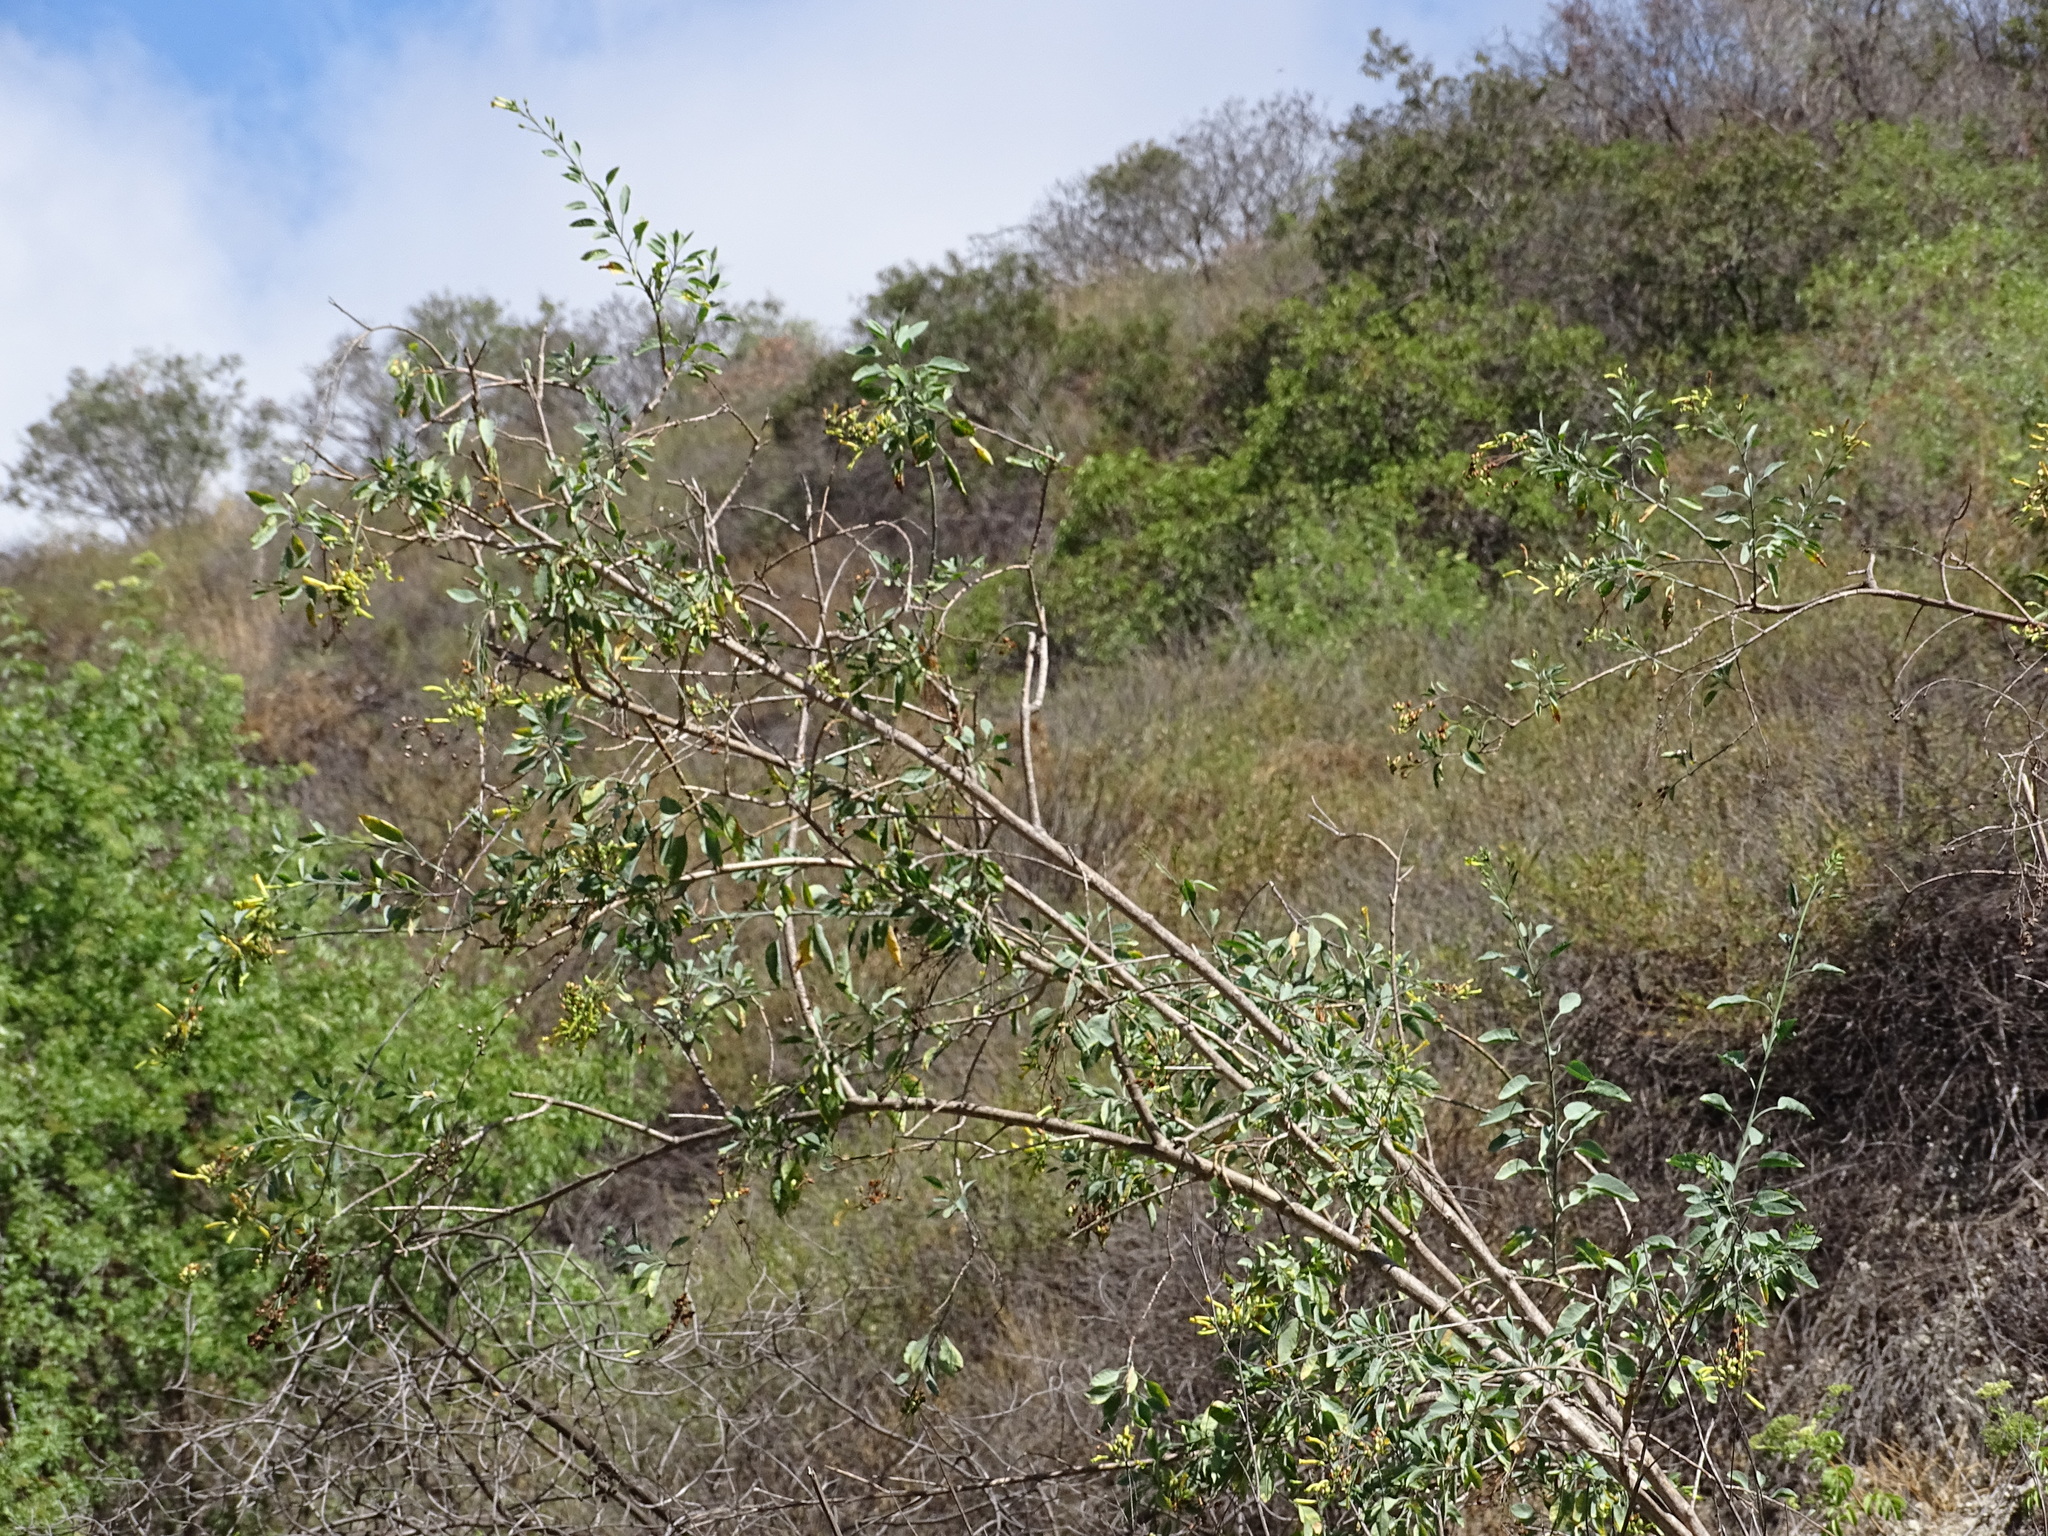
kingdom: Plantae
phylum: Tracheophyta
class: Magnoliopsida
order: Solanales
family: Solanaceae
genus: Nicotiana
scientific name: Nicotiana glauca
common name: Tree tobacco
